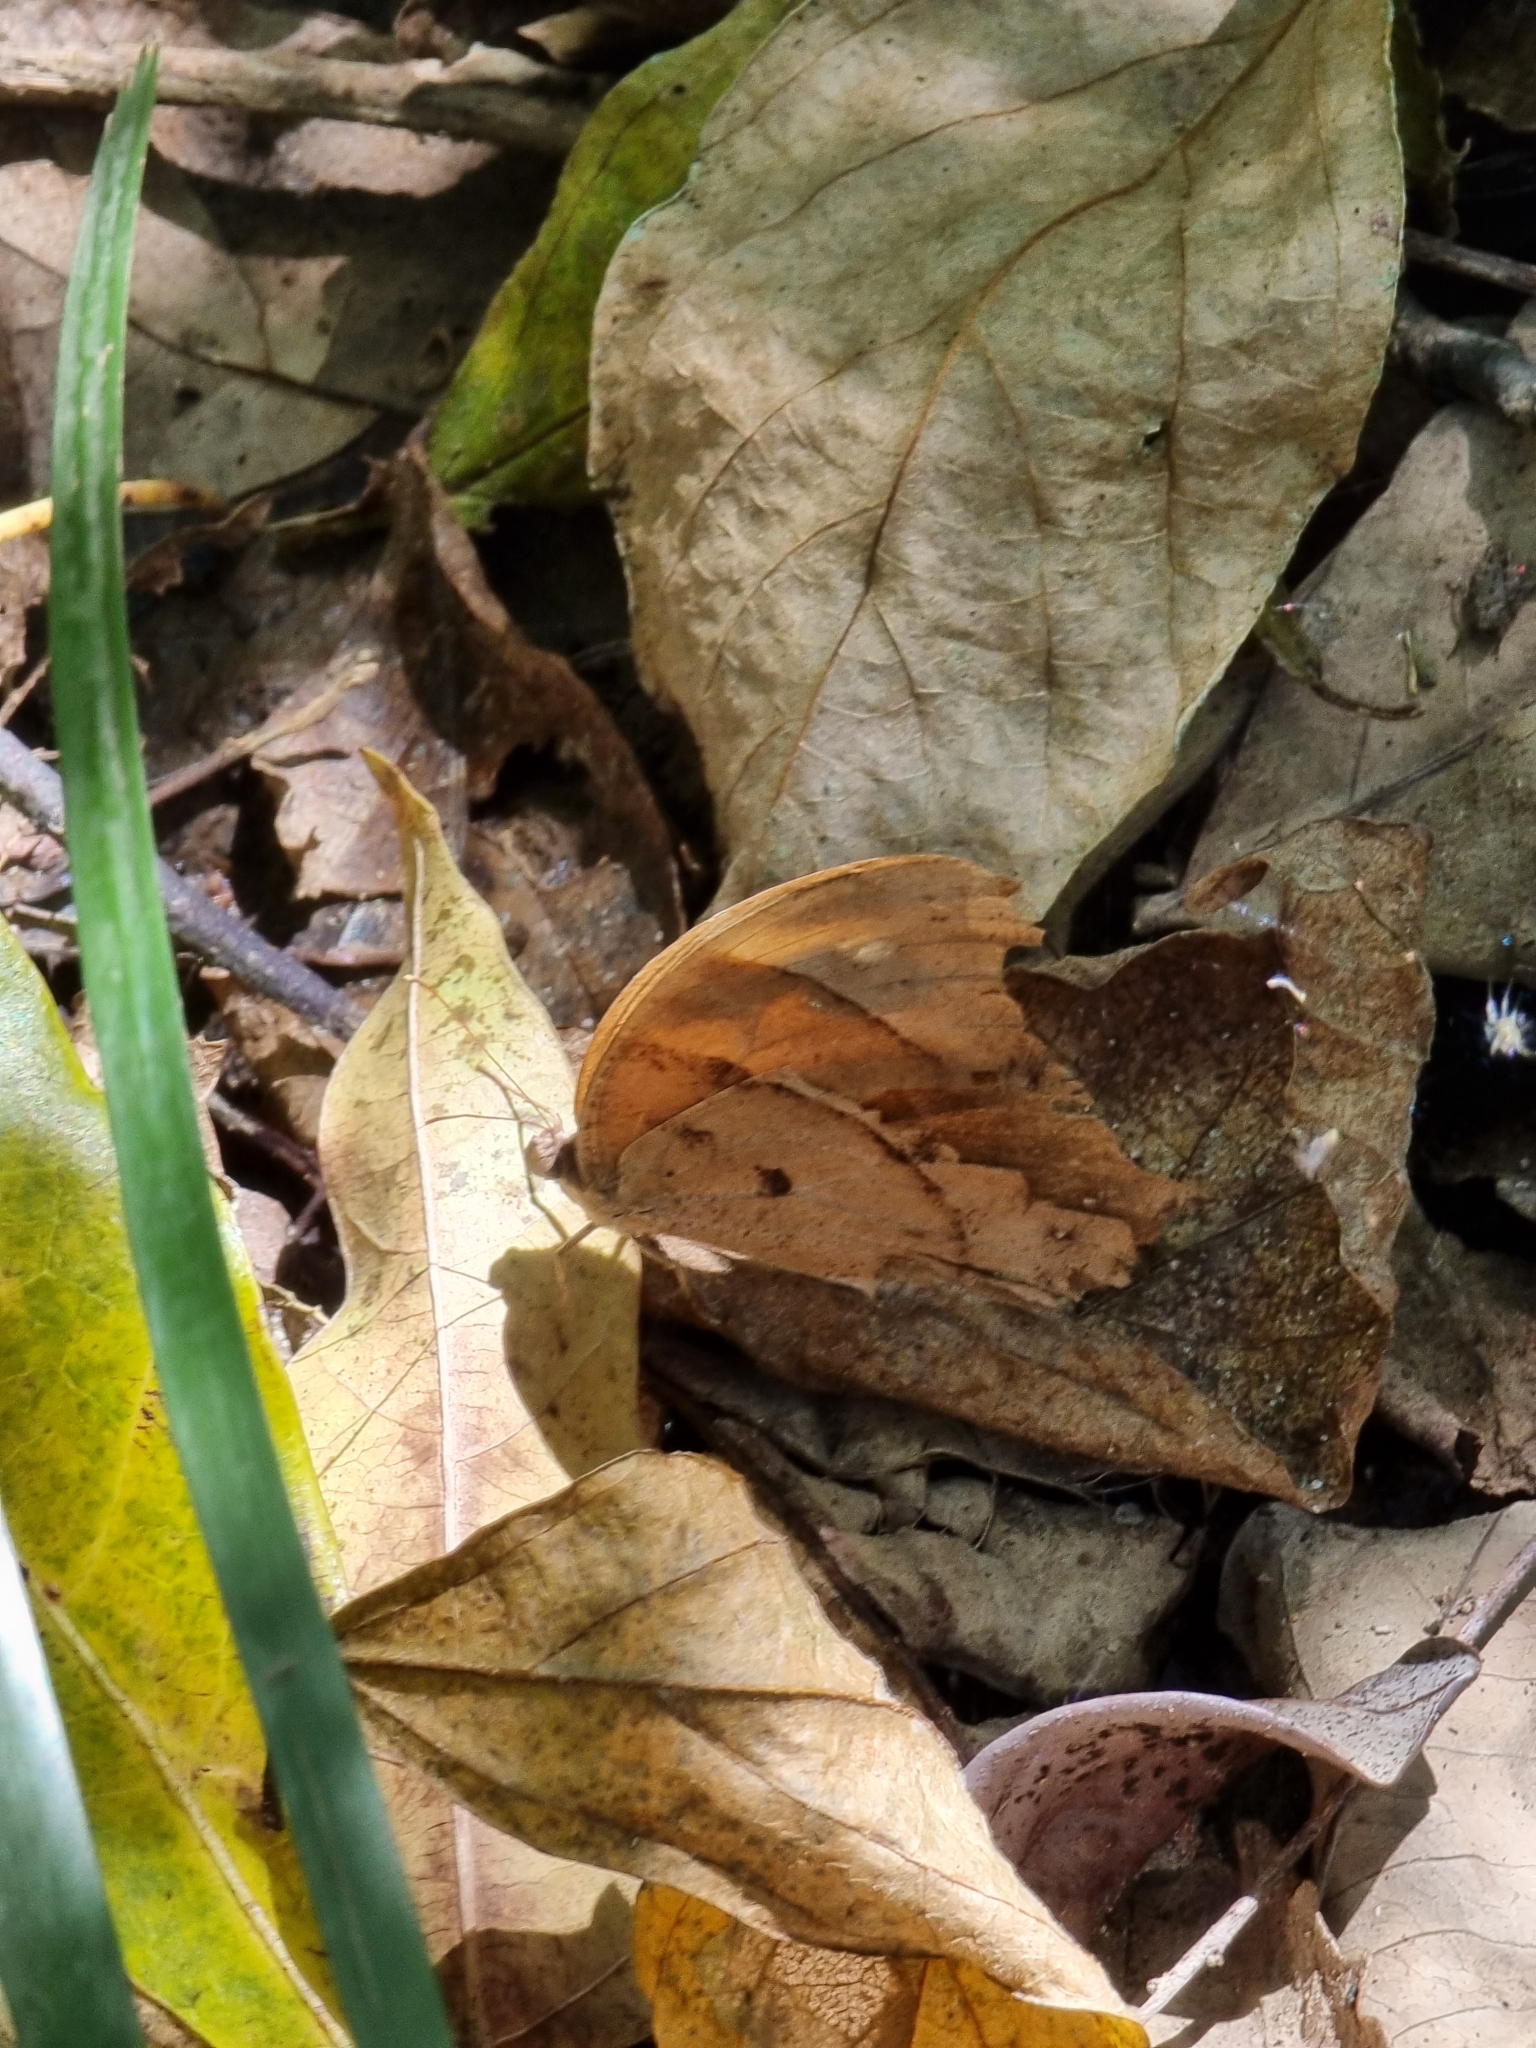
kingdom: Animalia
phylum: Arthropoda
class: Insecta
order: Lepidoptera
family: Nymphalidae
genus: Melanitis
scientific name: Melanitis leda
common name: Twilight brown
